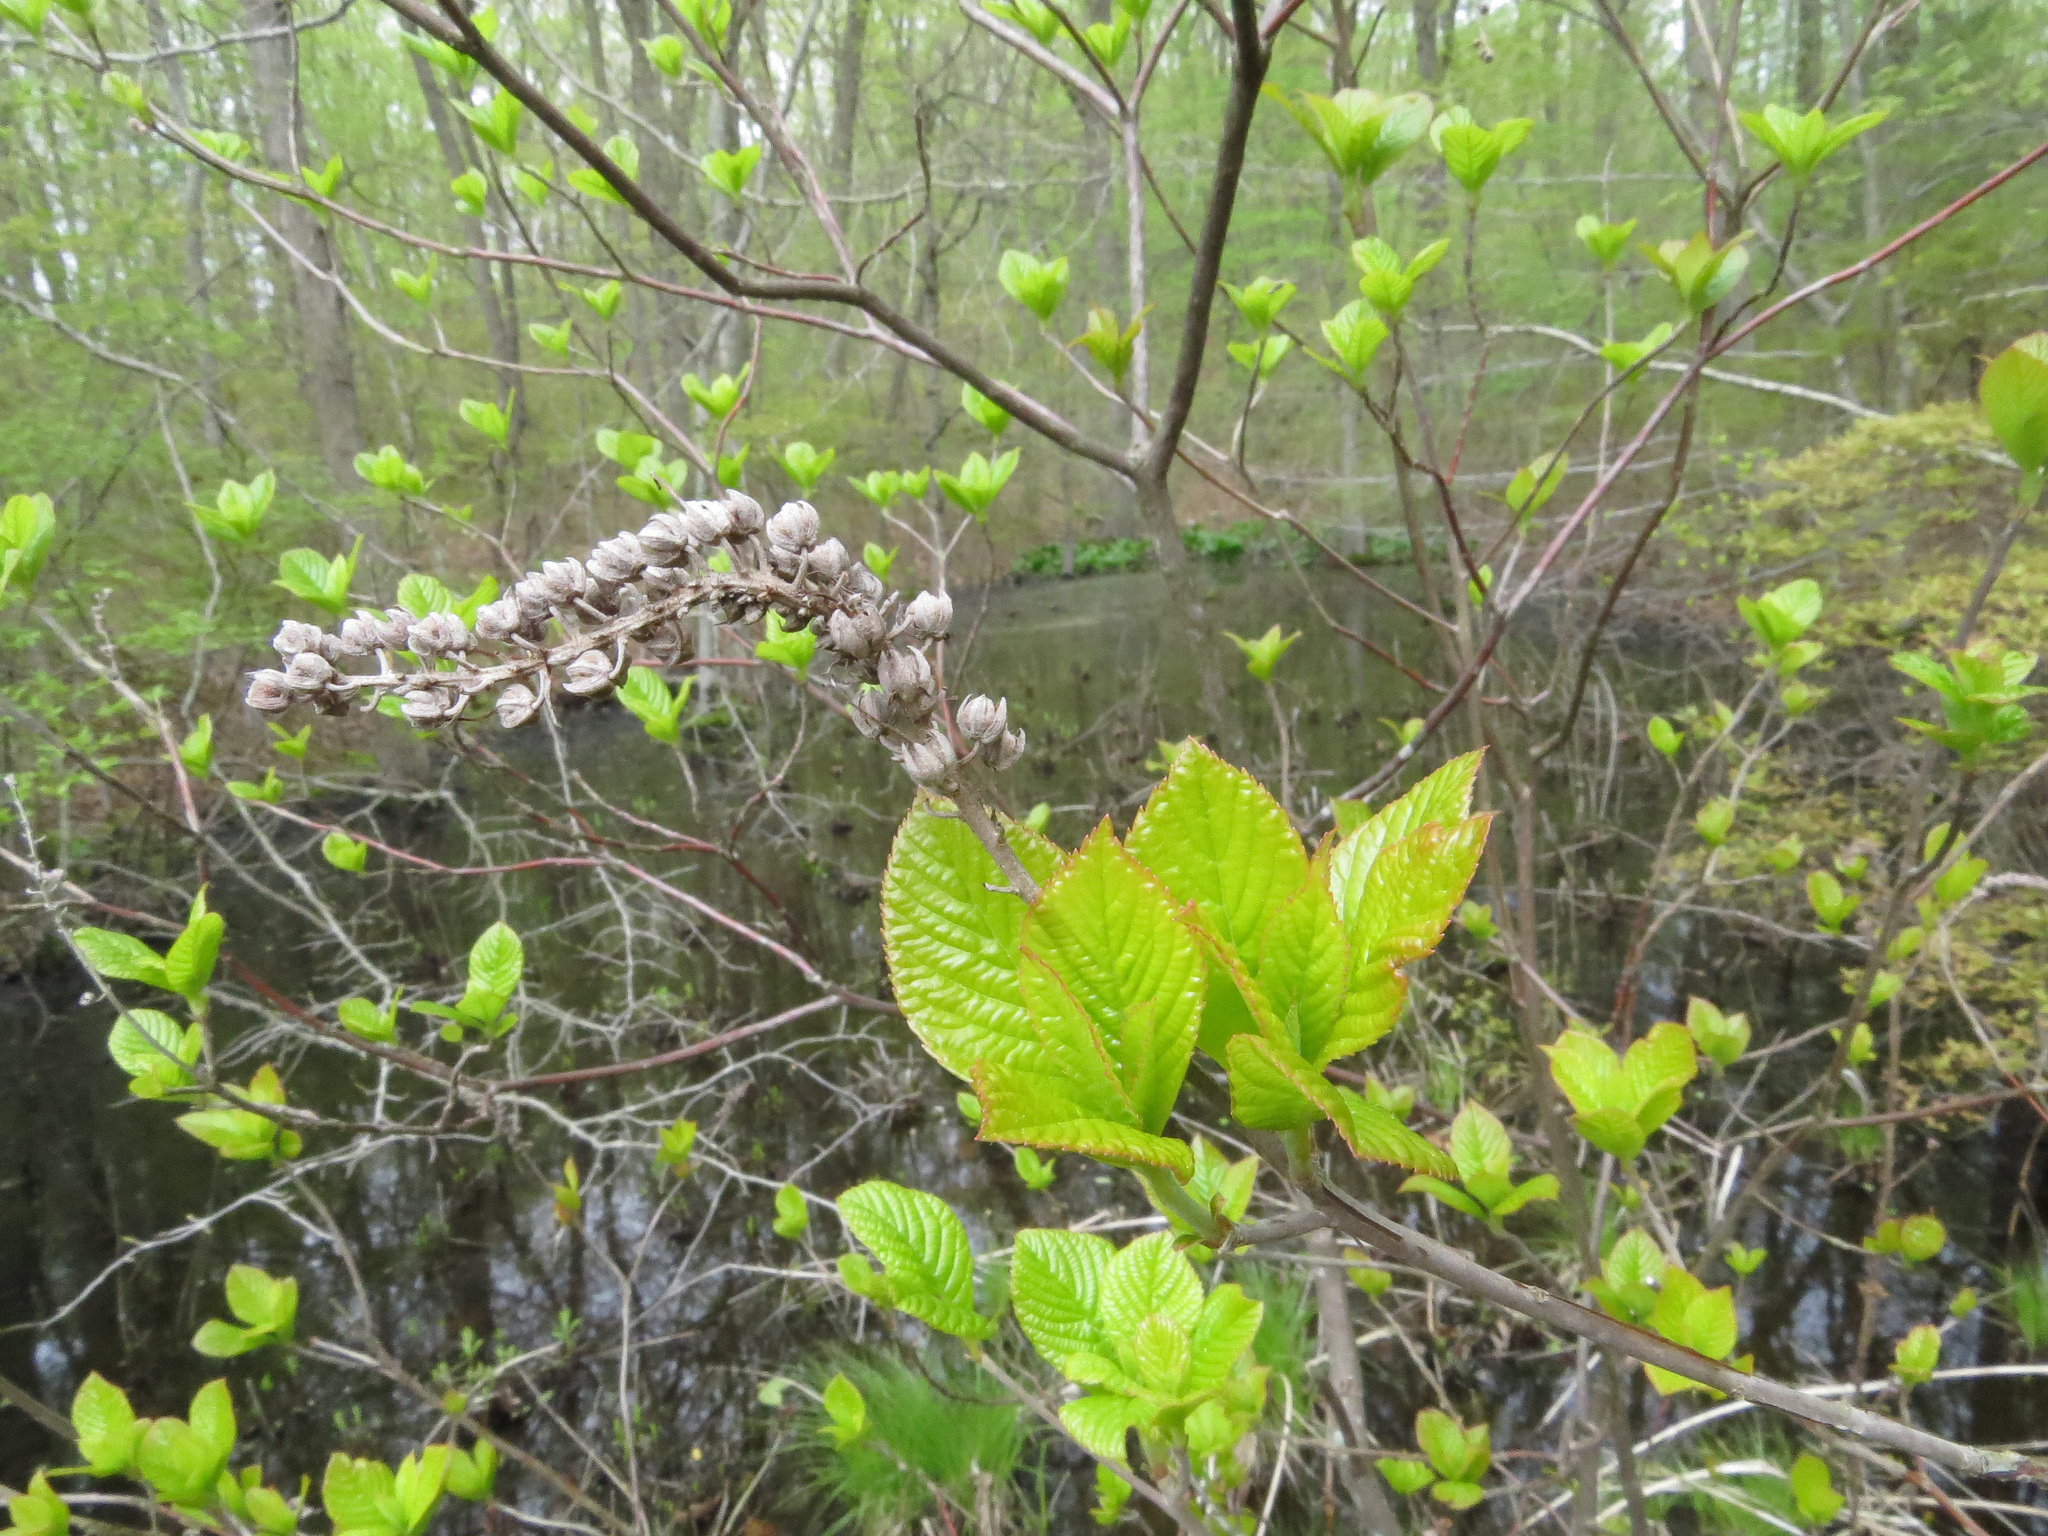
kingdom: Plantae
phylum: Tracheophyta
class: Magnoliopsida
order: Ericales
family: Clethraceae
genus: Clethra
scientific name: Clethra alnifolia
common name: Sweet pepperbush
